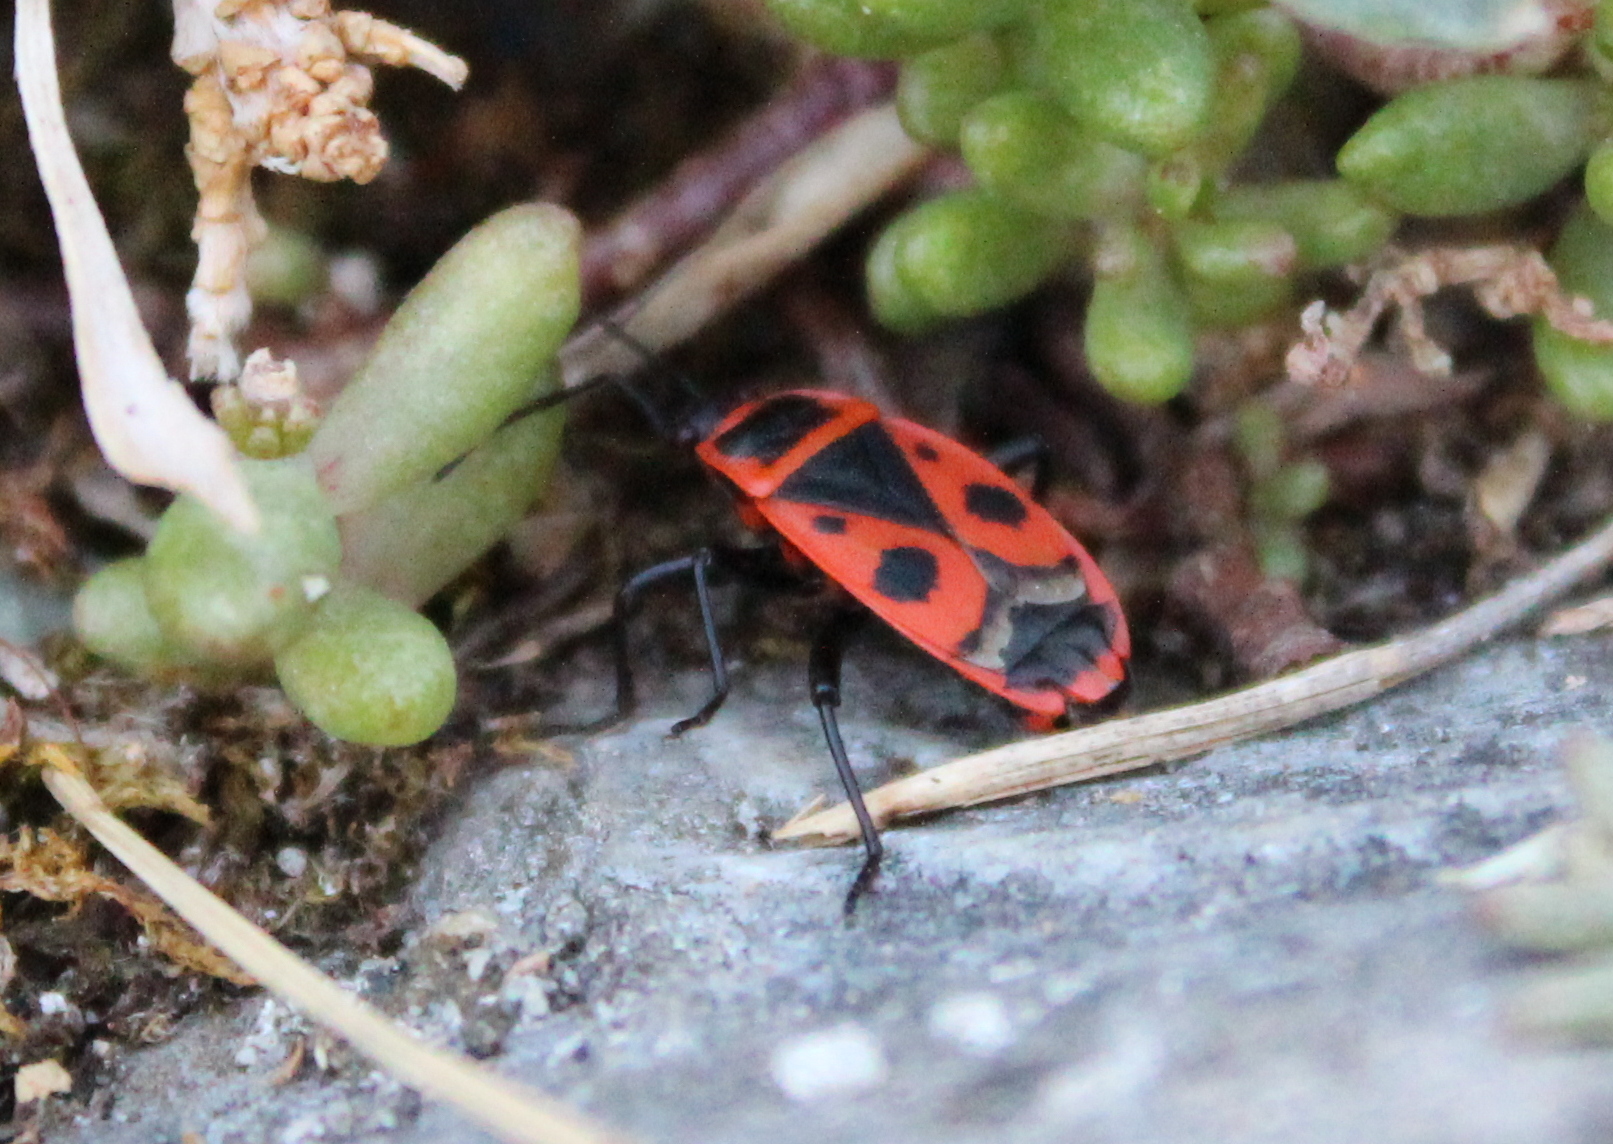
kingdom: Animalia
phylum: Arthropoda
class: Insecta
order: Hemiptera
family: Pyrrhocoridae
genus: Pyrrhocoris
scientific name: Pyrrhocoris apterus
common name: Firebug
